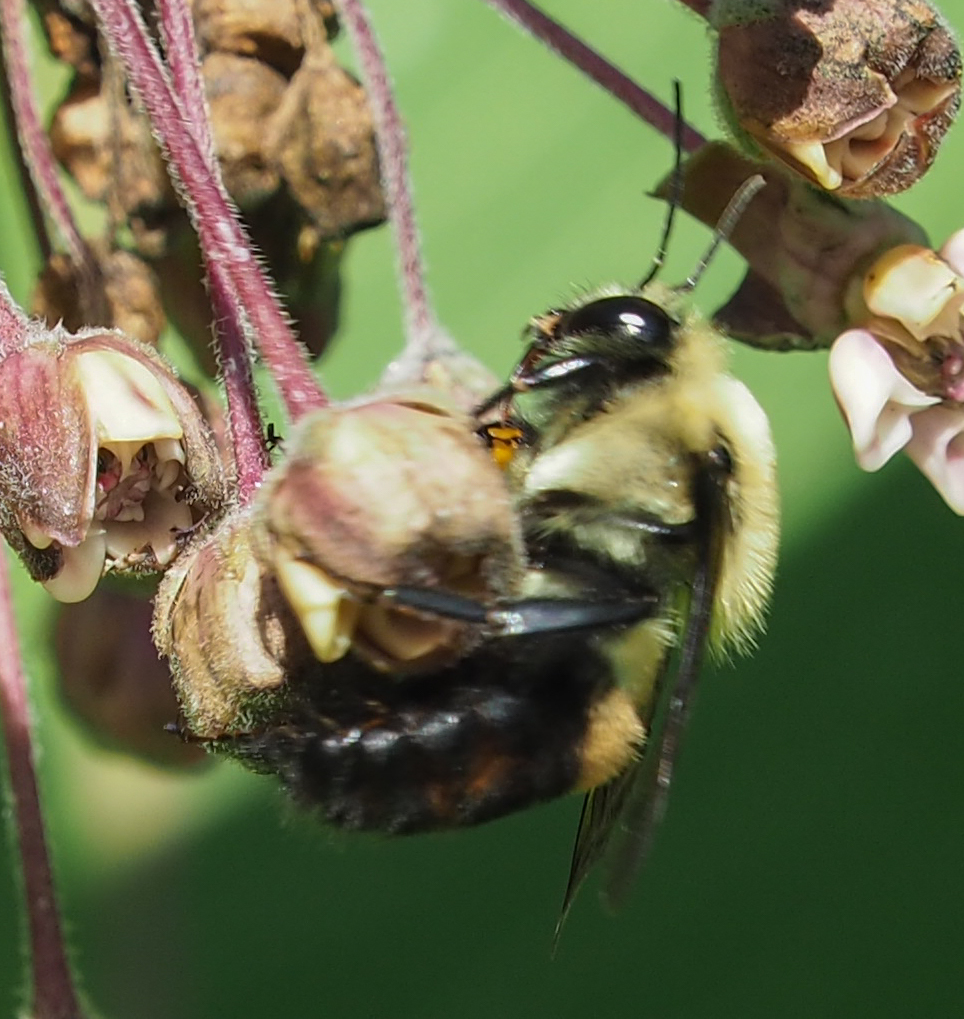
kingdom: Animalia
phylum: Arthropoda
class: Insecta
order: Hymenoptera
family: Apidae
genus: Bombus
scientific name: Bombus griseocollis
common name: Brown-belted bumble bee
